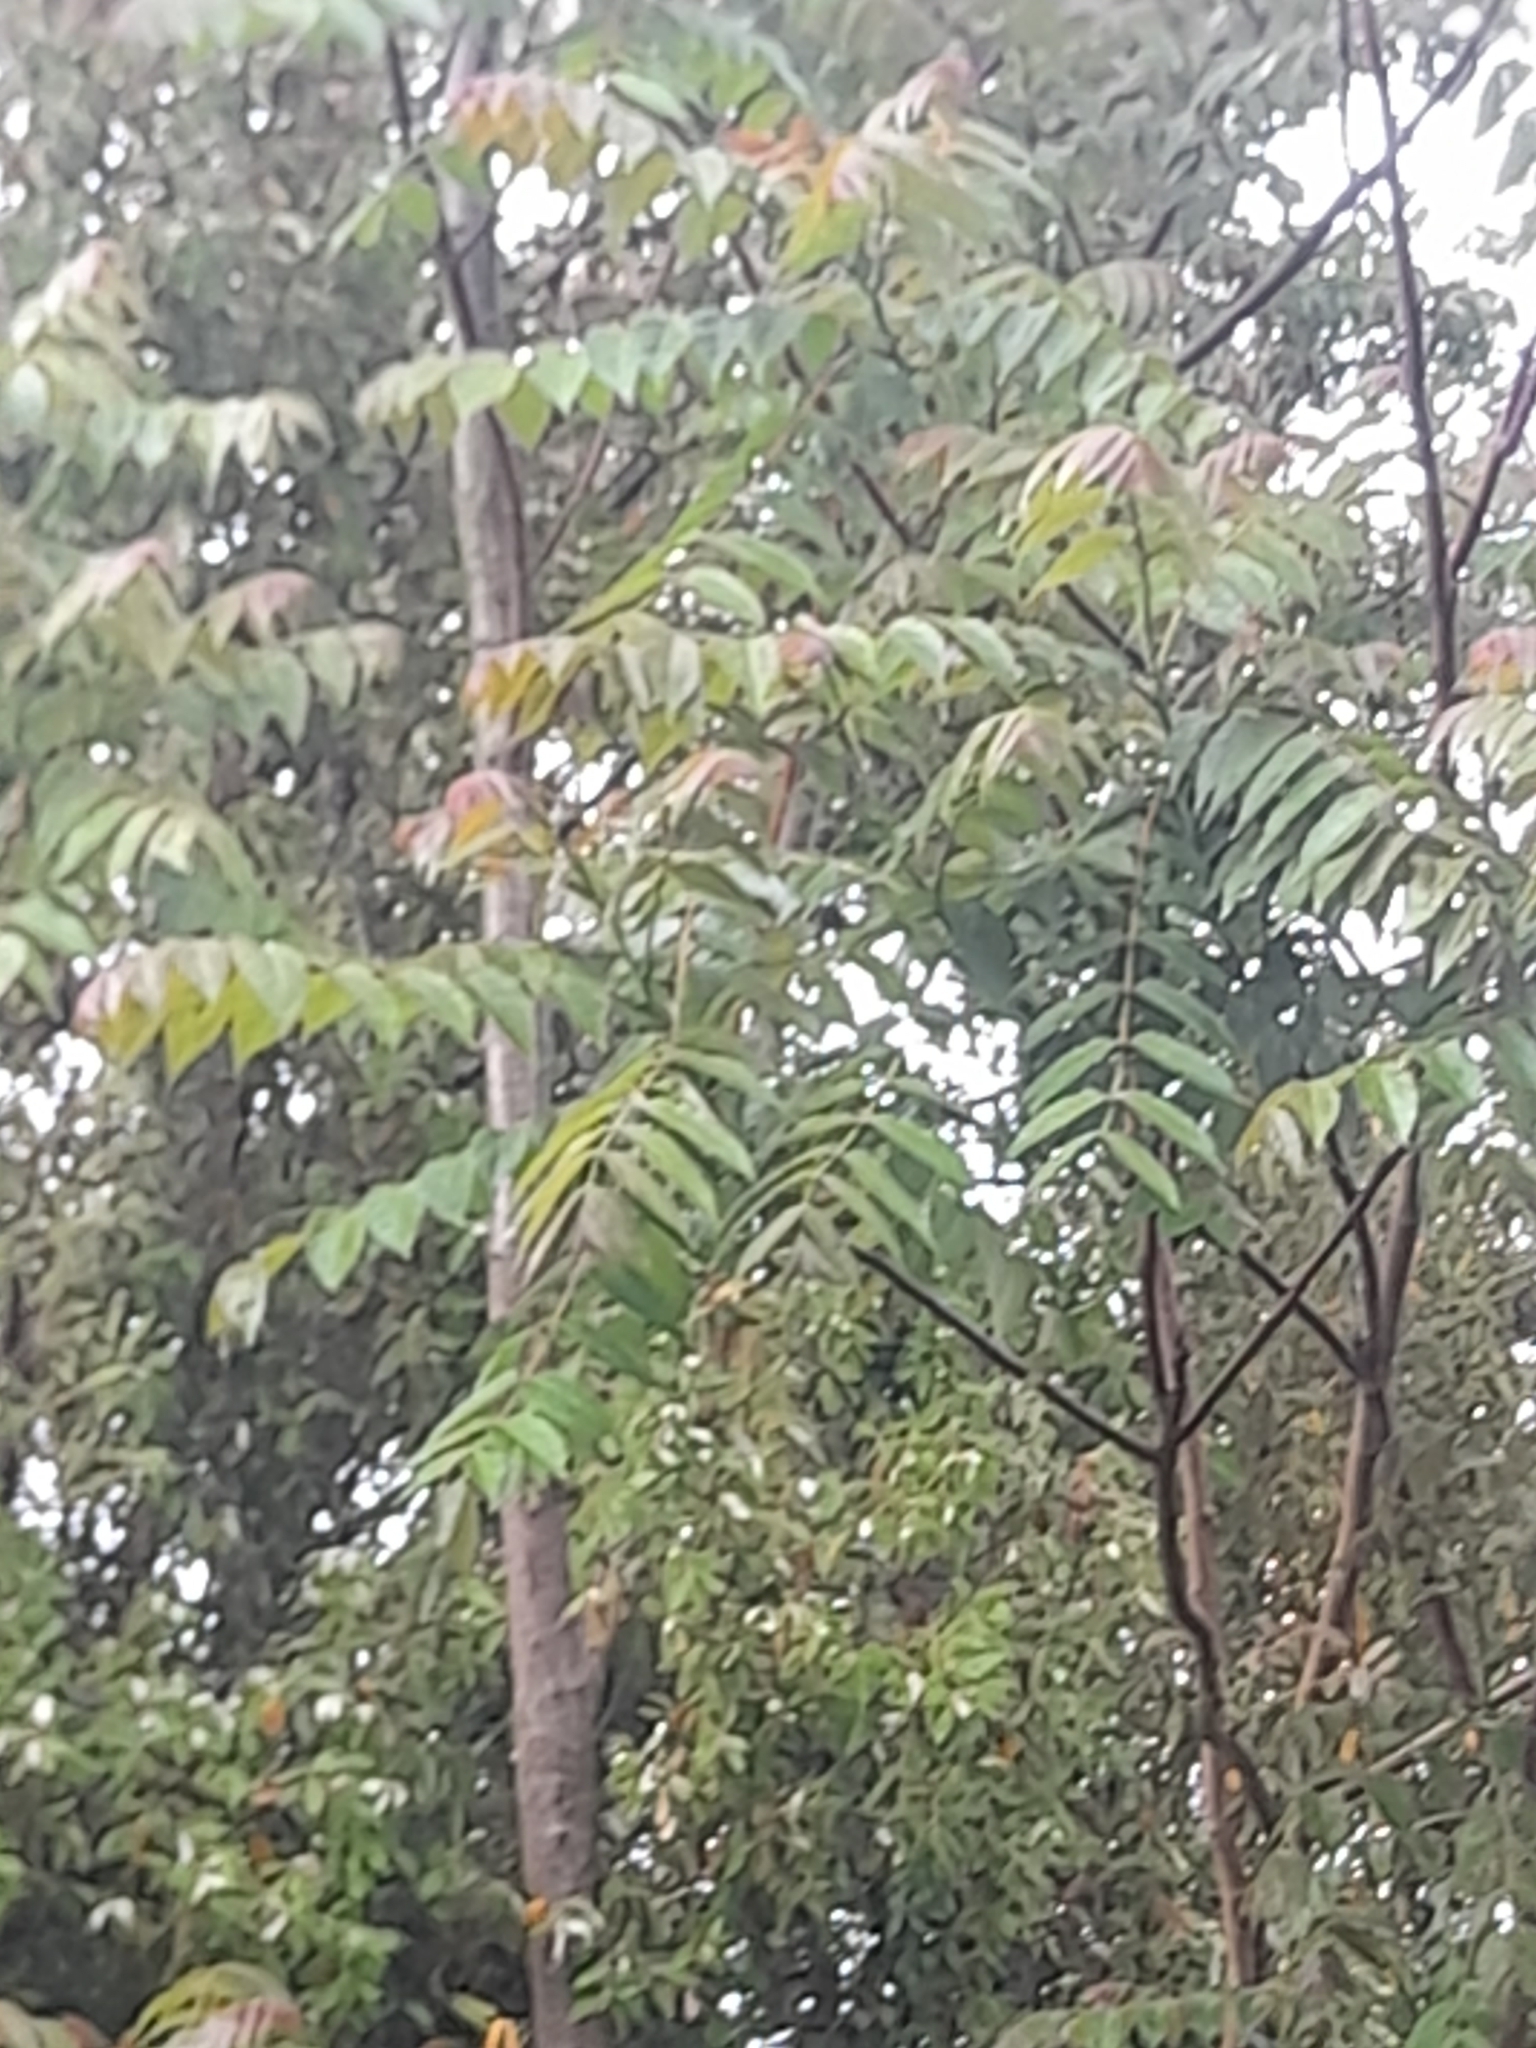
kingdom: Plantae
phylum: Tracheophyta
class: Magnoliopsida
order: Sapindales
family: Simaroubaceae
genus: Ailanthus
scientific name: Ailanthus altissima
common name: Tree-of-heaven
